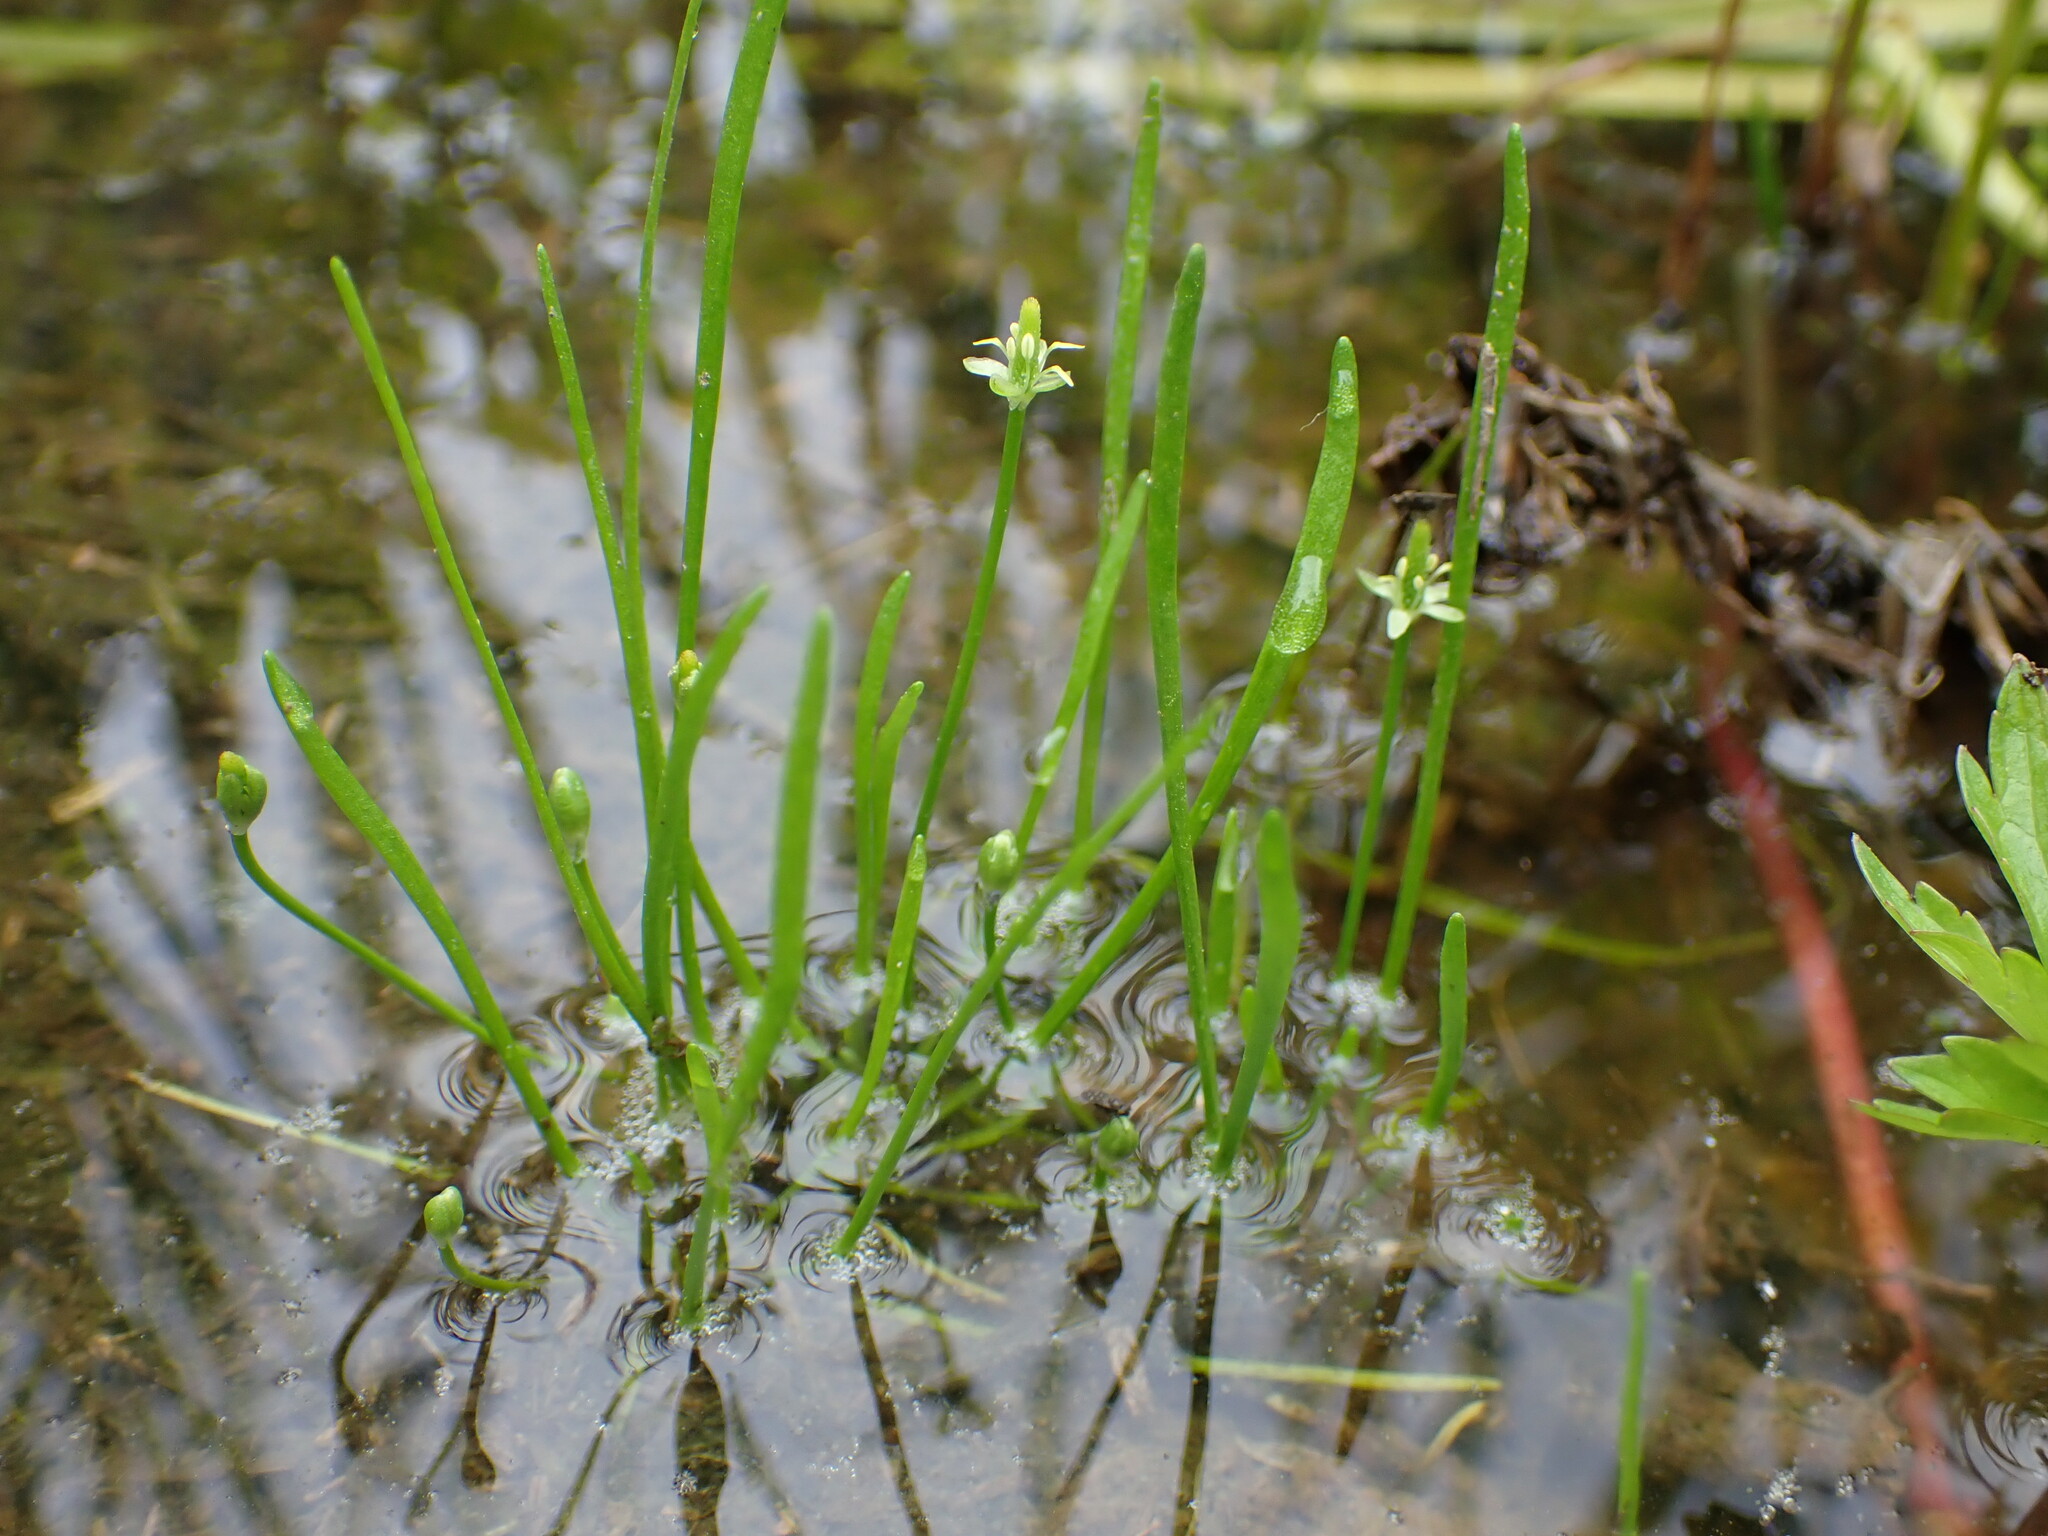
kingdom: Plantae
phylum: Tracheophyta
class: Magnoliopsida
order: Ranunculales
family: Ranunculaceae
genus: Myosurus
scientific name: Myosurus minimus
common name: Mousetail
